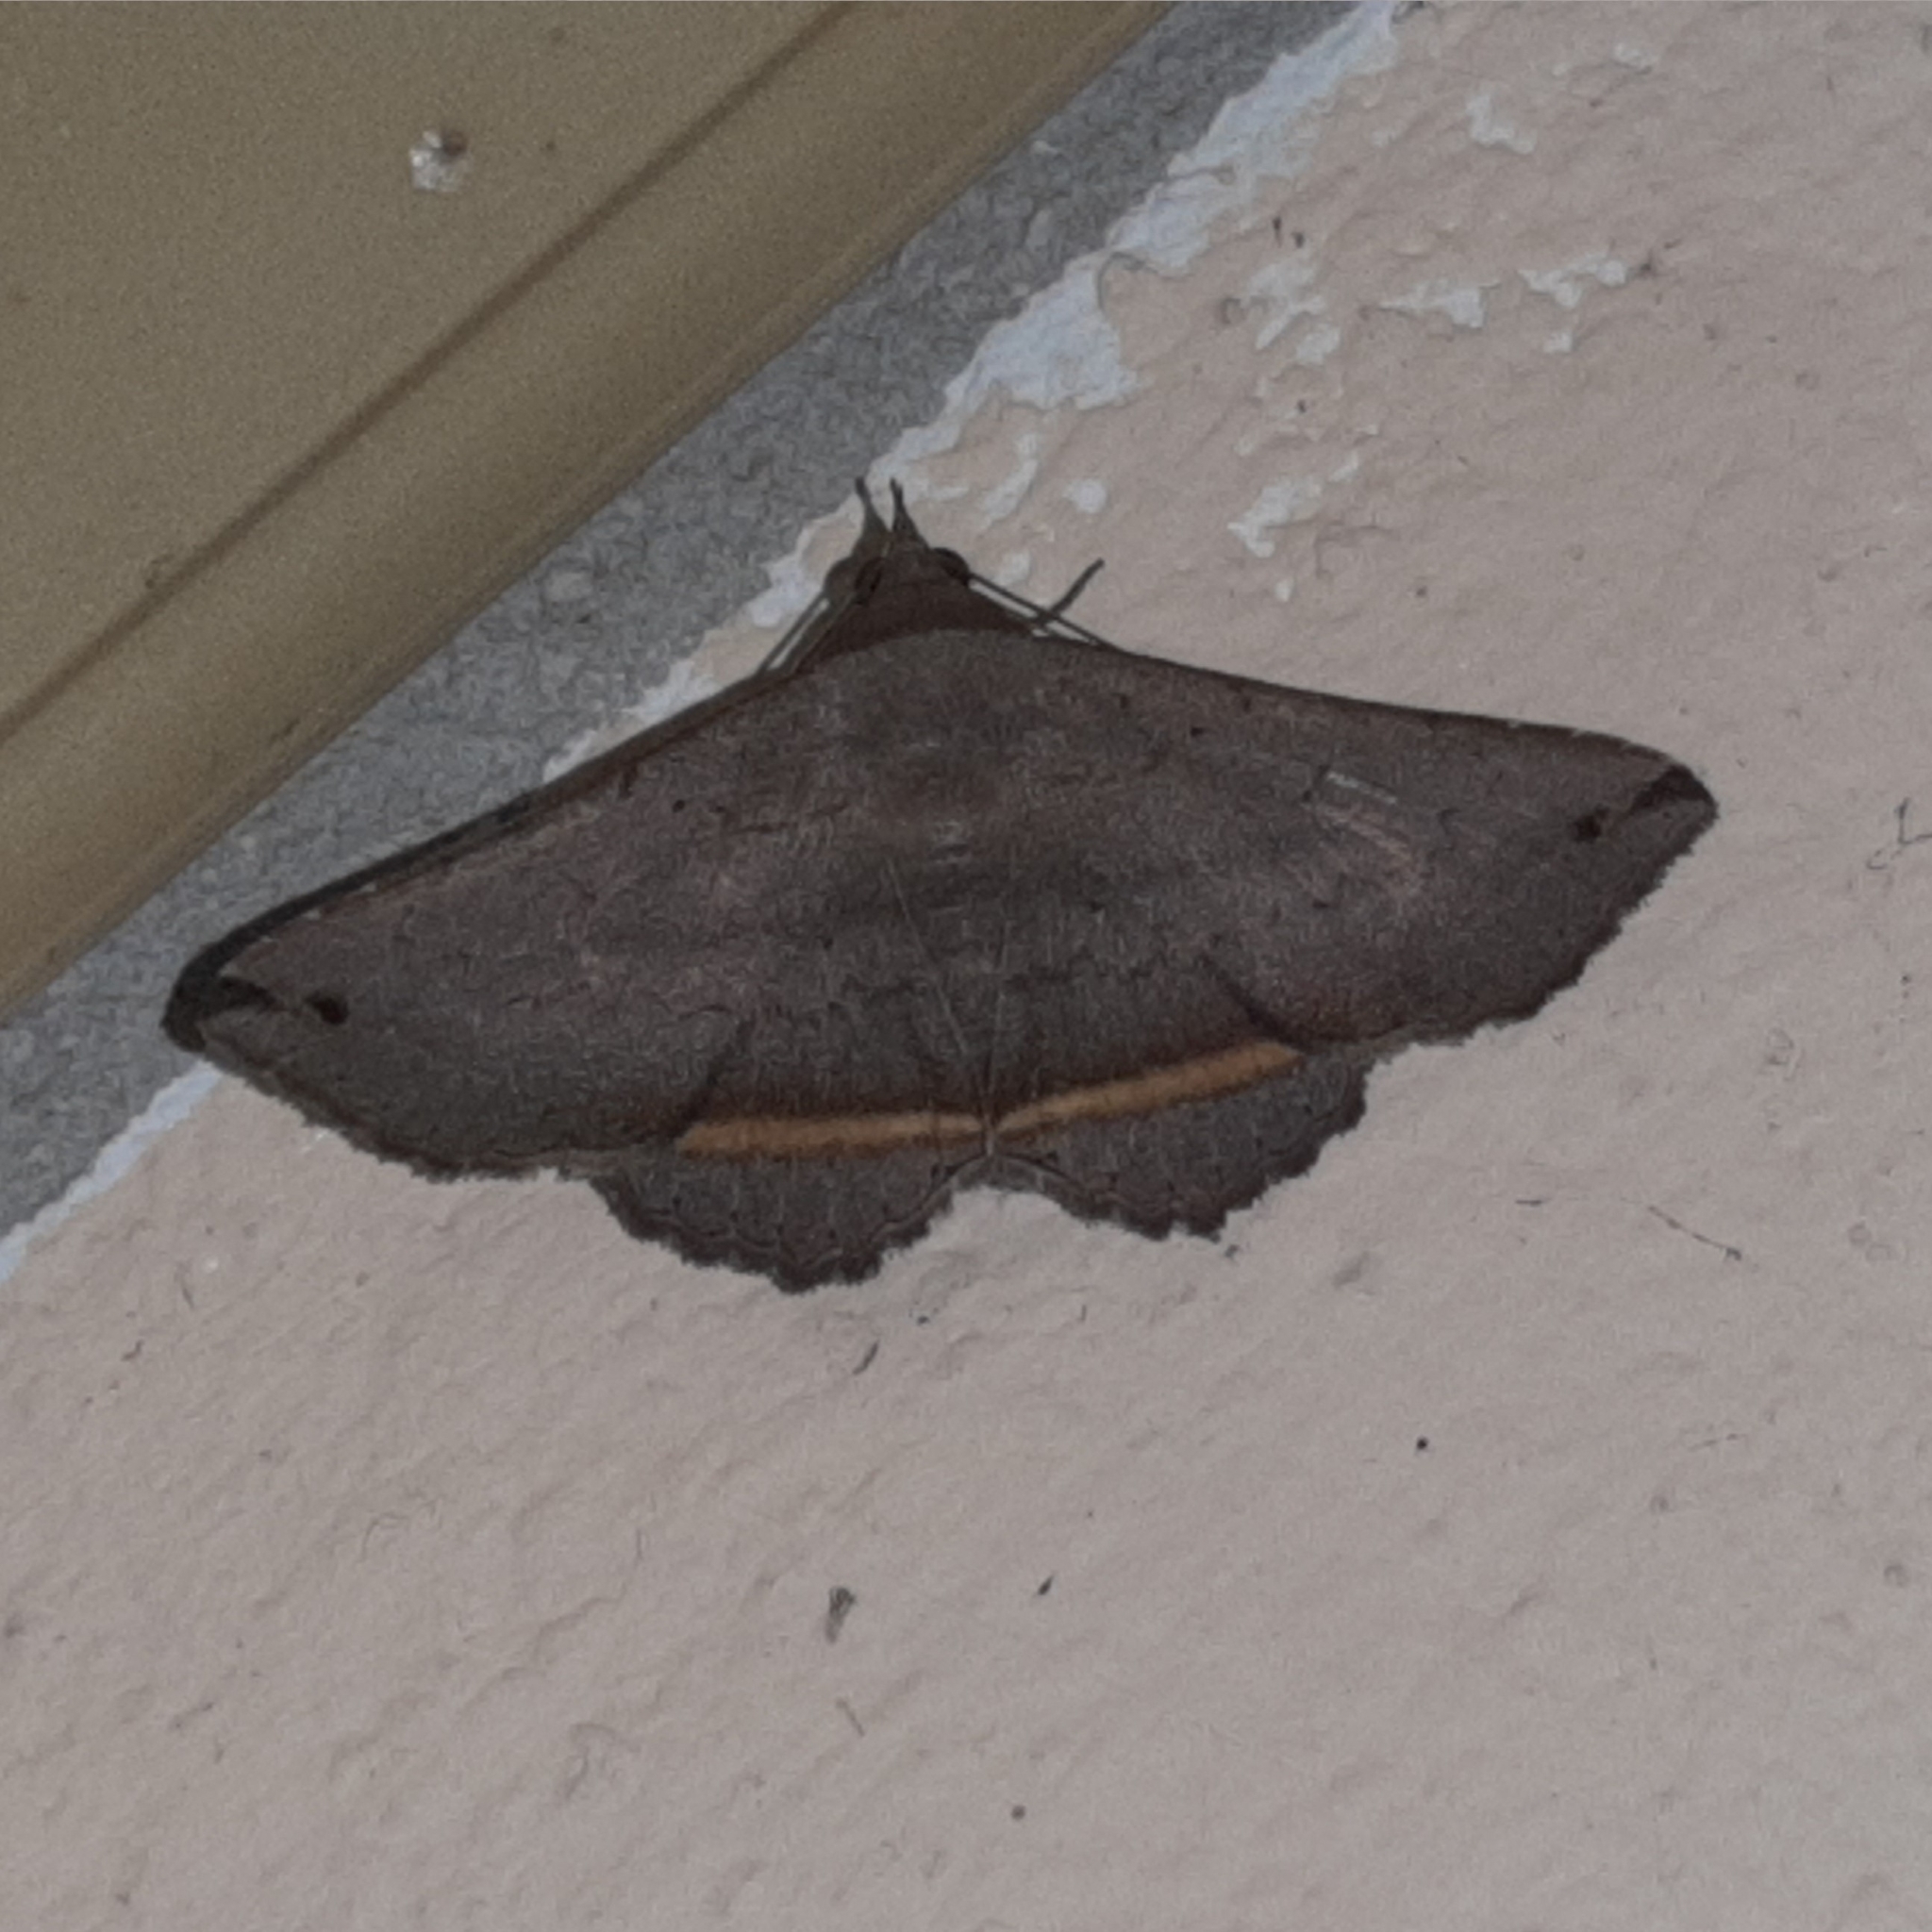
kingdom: Animalia
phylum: Arthropoda
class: Insecta
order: Lepidoptera
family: Erebidae
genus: Lesmone
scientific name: Lesmone formularis
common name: Lesmone moth
